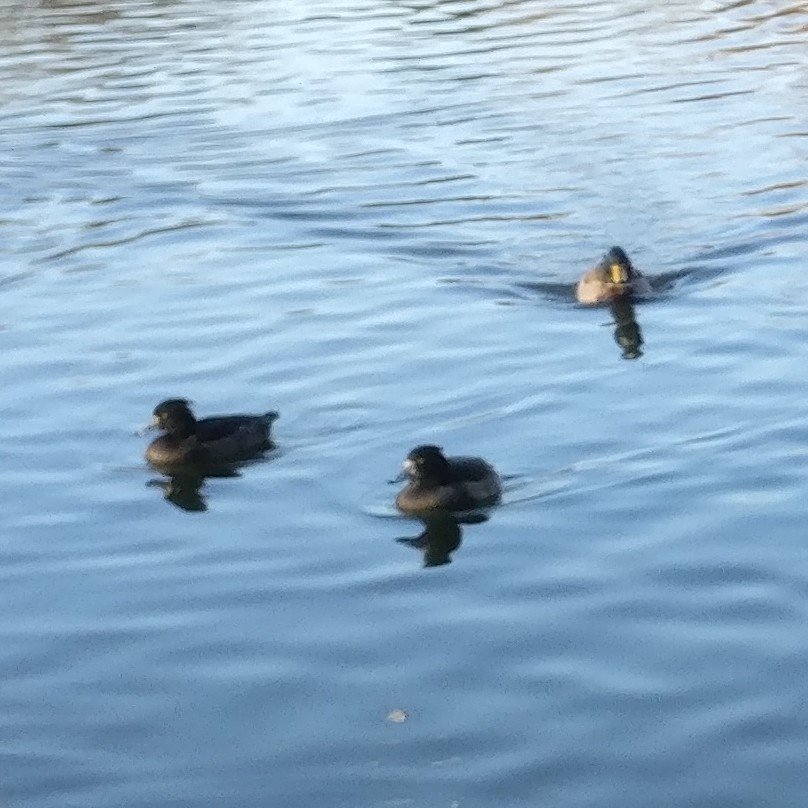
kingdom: Animalia
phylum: Chordata
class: Aves
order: Anseriformes
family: Anatidae
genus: Aythya
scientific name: Aythya fuligula
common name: Tufted duck
